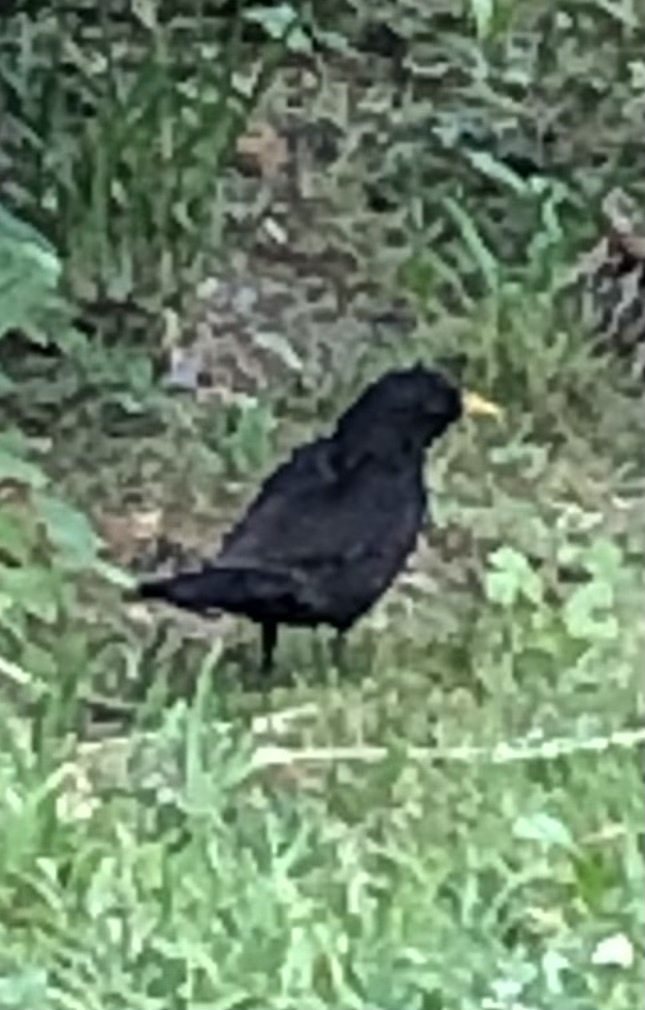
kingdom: Animalia
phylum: Chordata
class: Aves
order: Passeriformes
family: Turdidae
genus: Turdus
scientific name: Turdus merula
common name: Common blackbird
